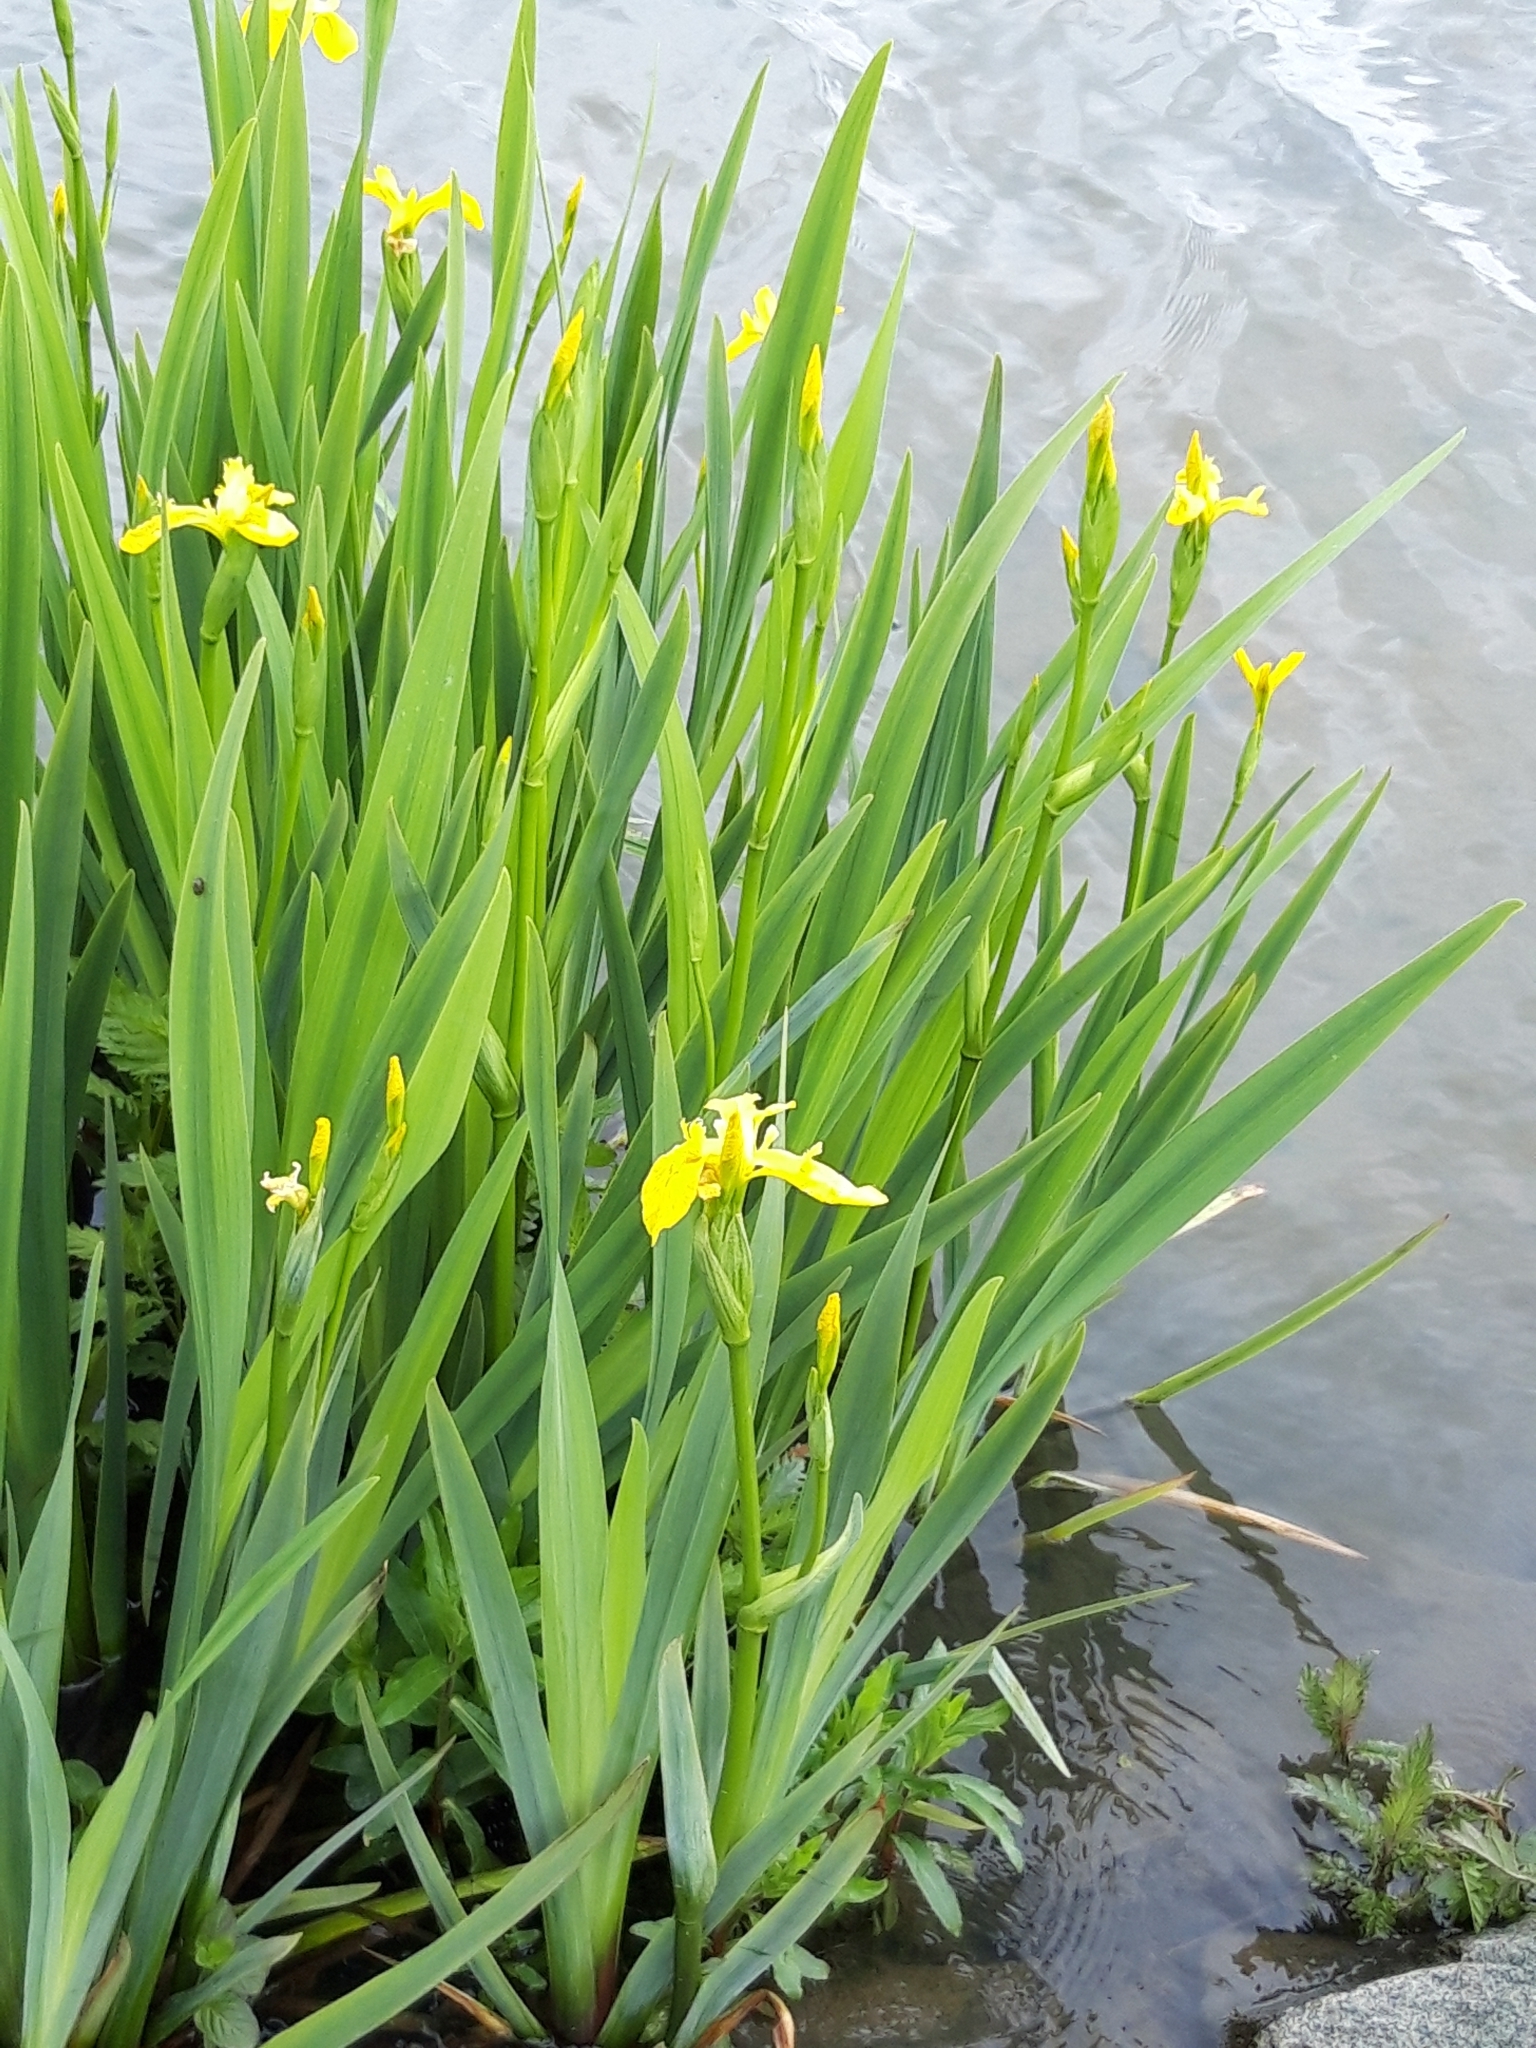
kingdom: Plantae
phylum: Tracheophyta
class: Liliopsida
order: Asparagales
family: Iridaceae
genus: Iris
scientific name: Iris pseudacorus
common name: Yellow flag
